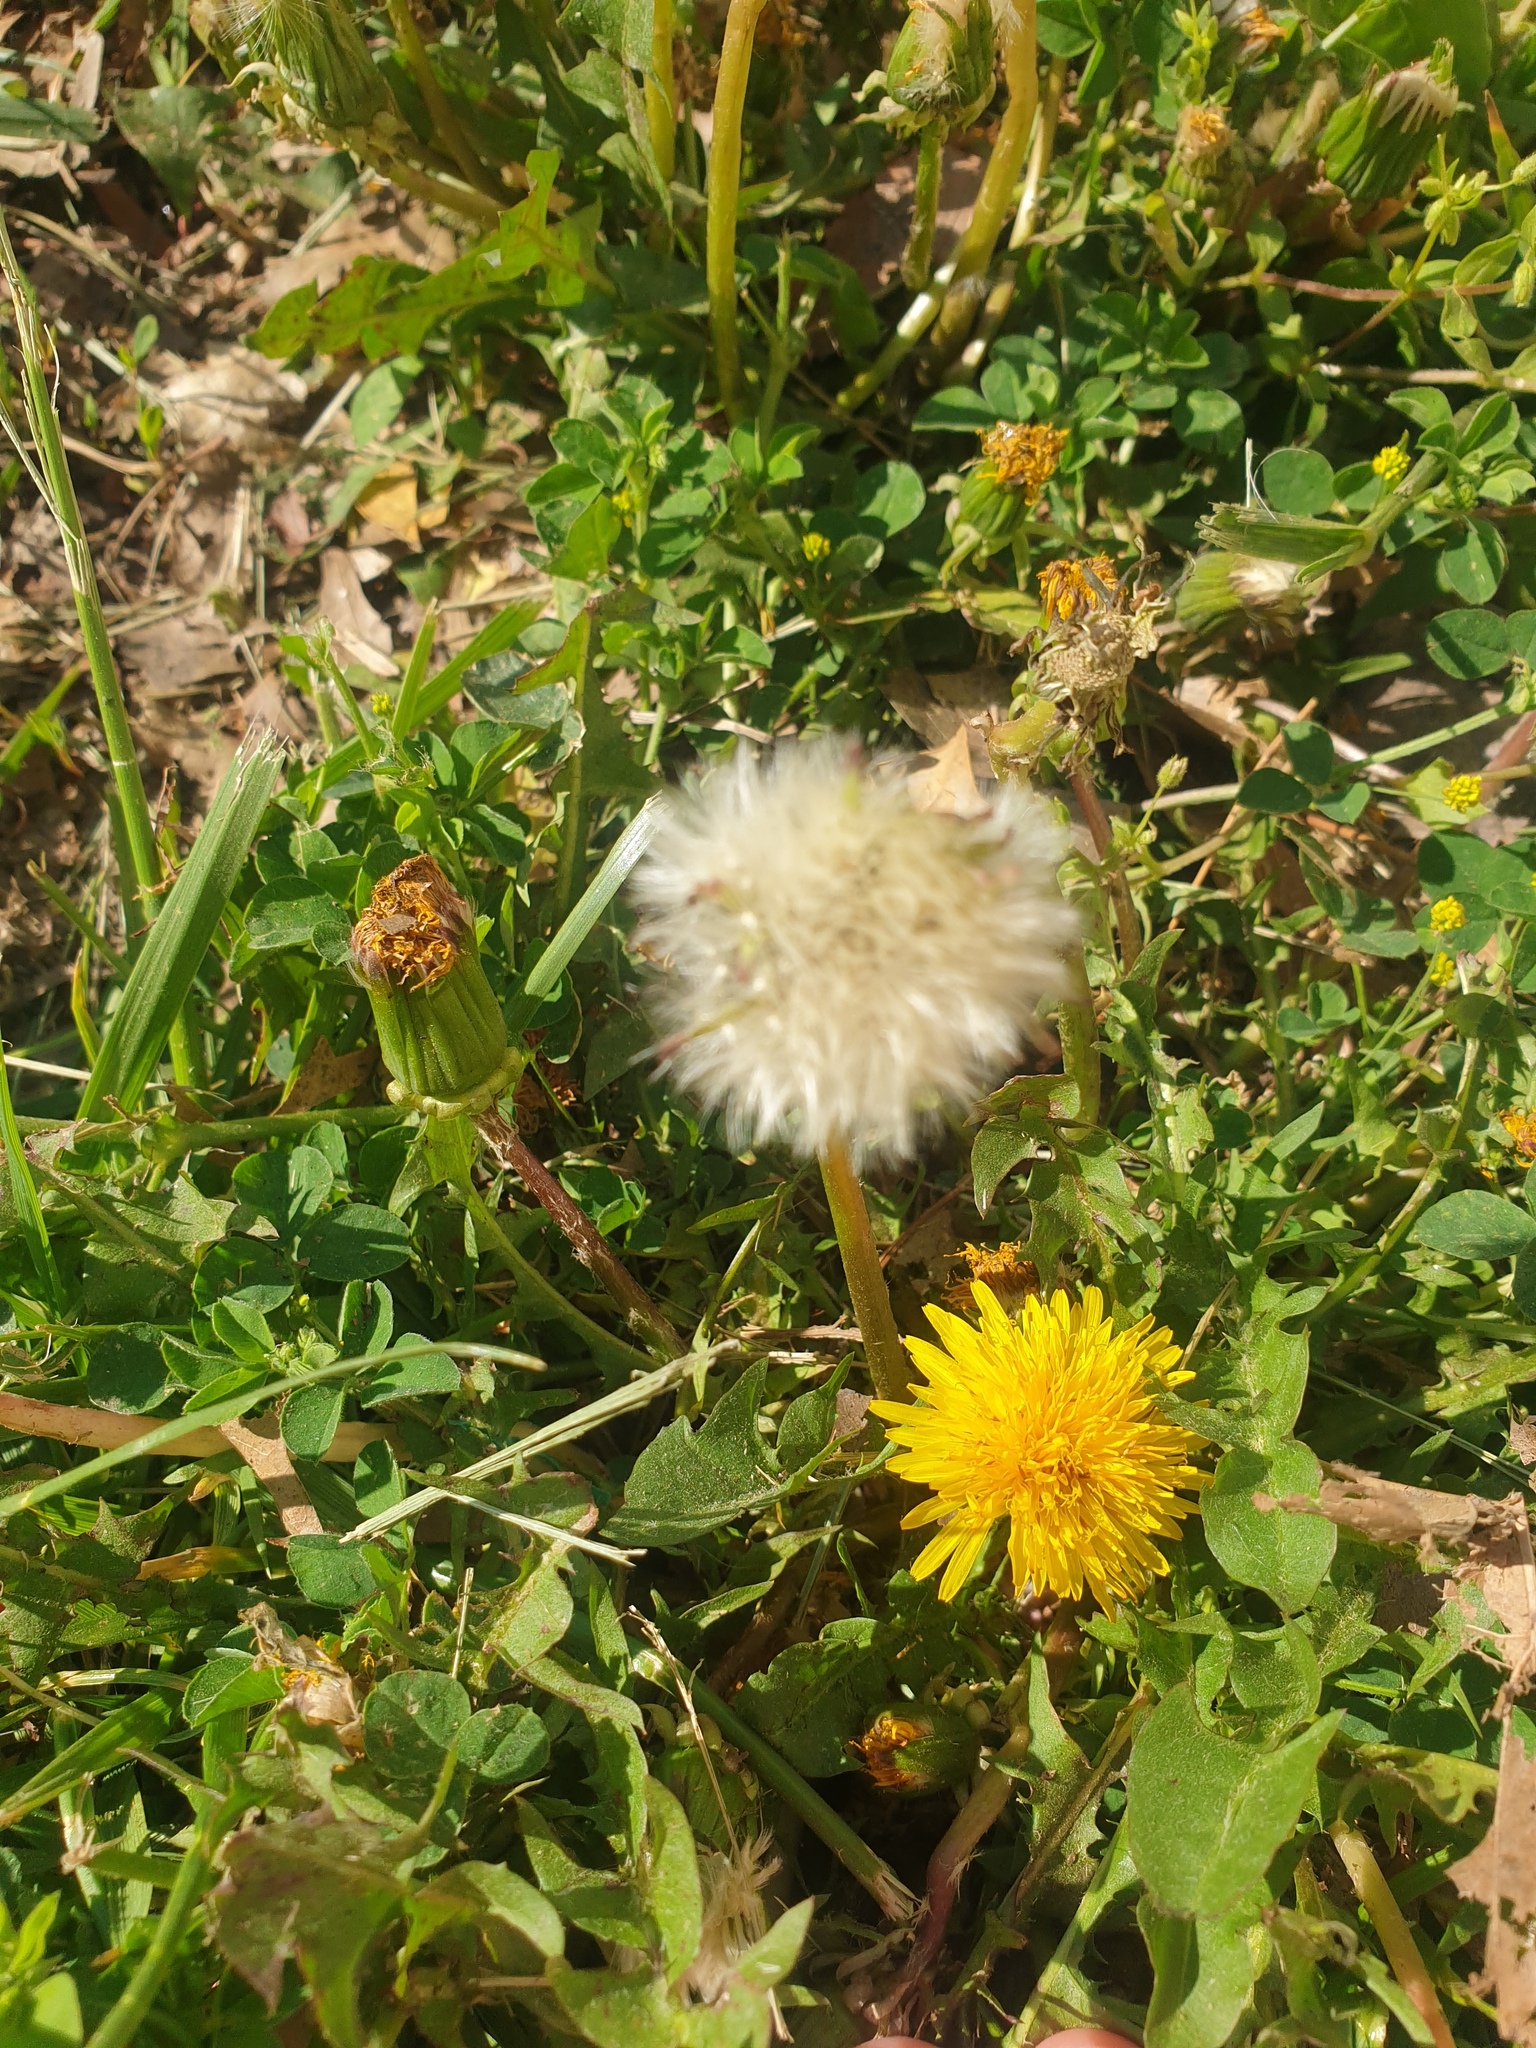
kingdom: Plantae
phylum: Tracheophyta
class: Magnoliopsida
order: Asterales
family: Asteraceae
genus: Taraxacum
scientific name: Taraxacum officinale
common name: Common dandelion
